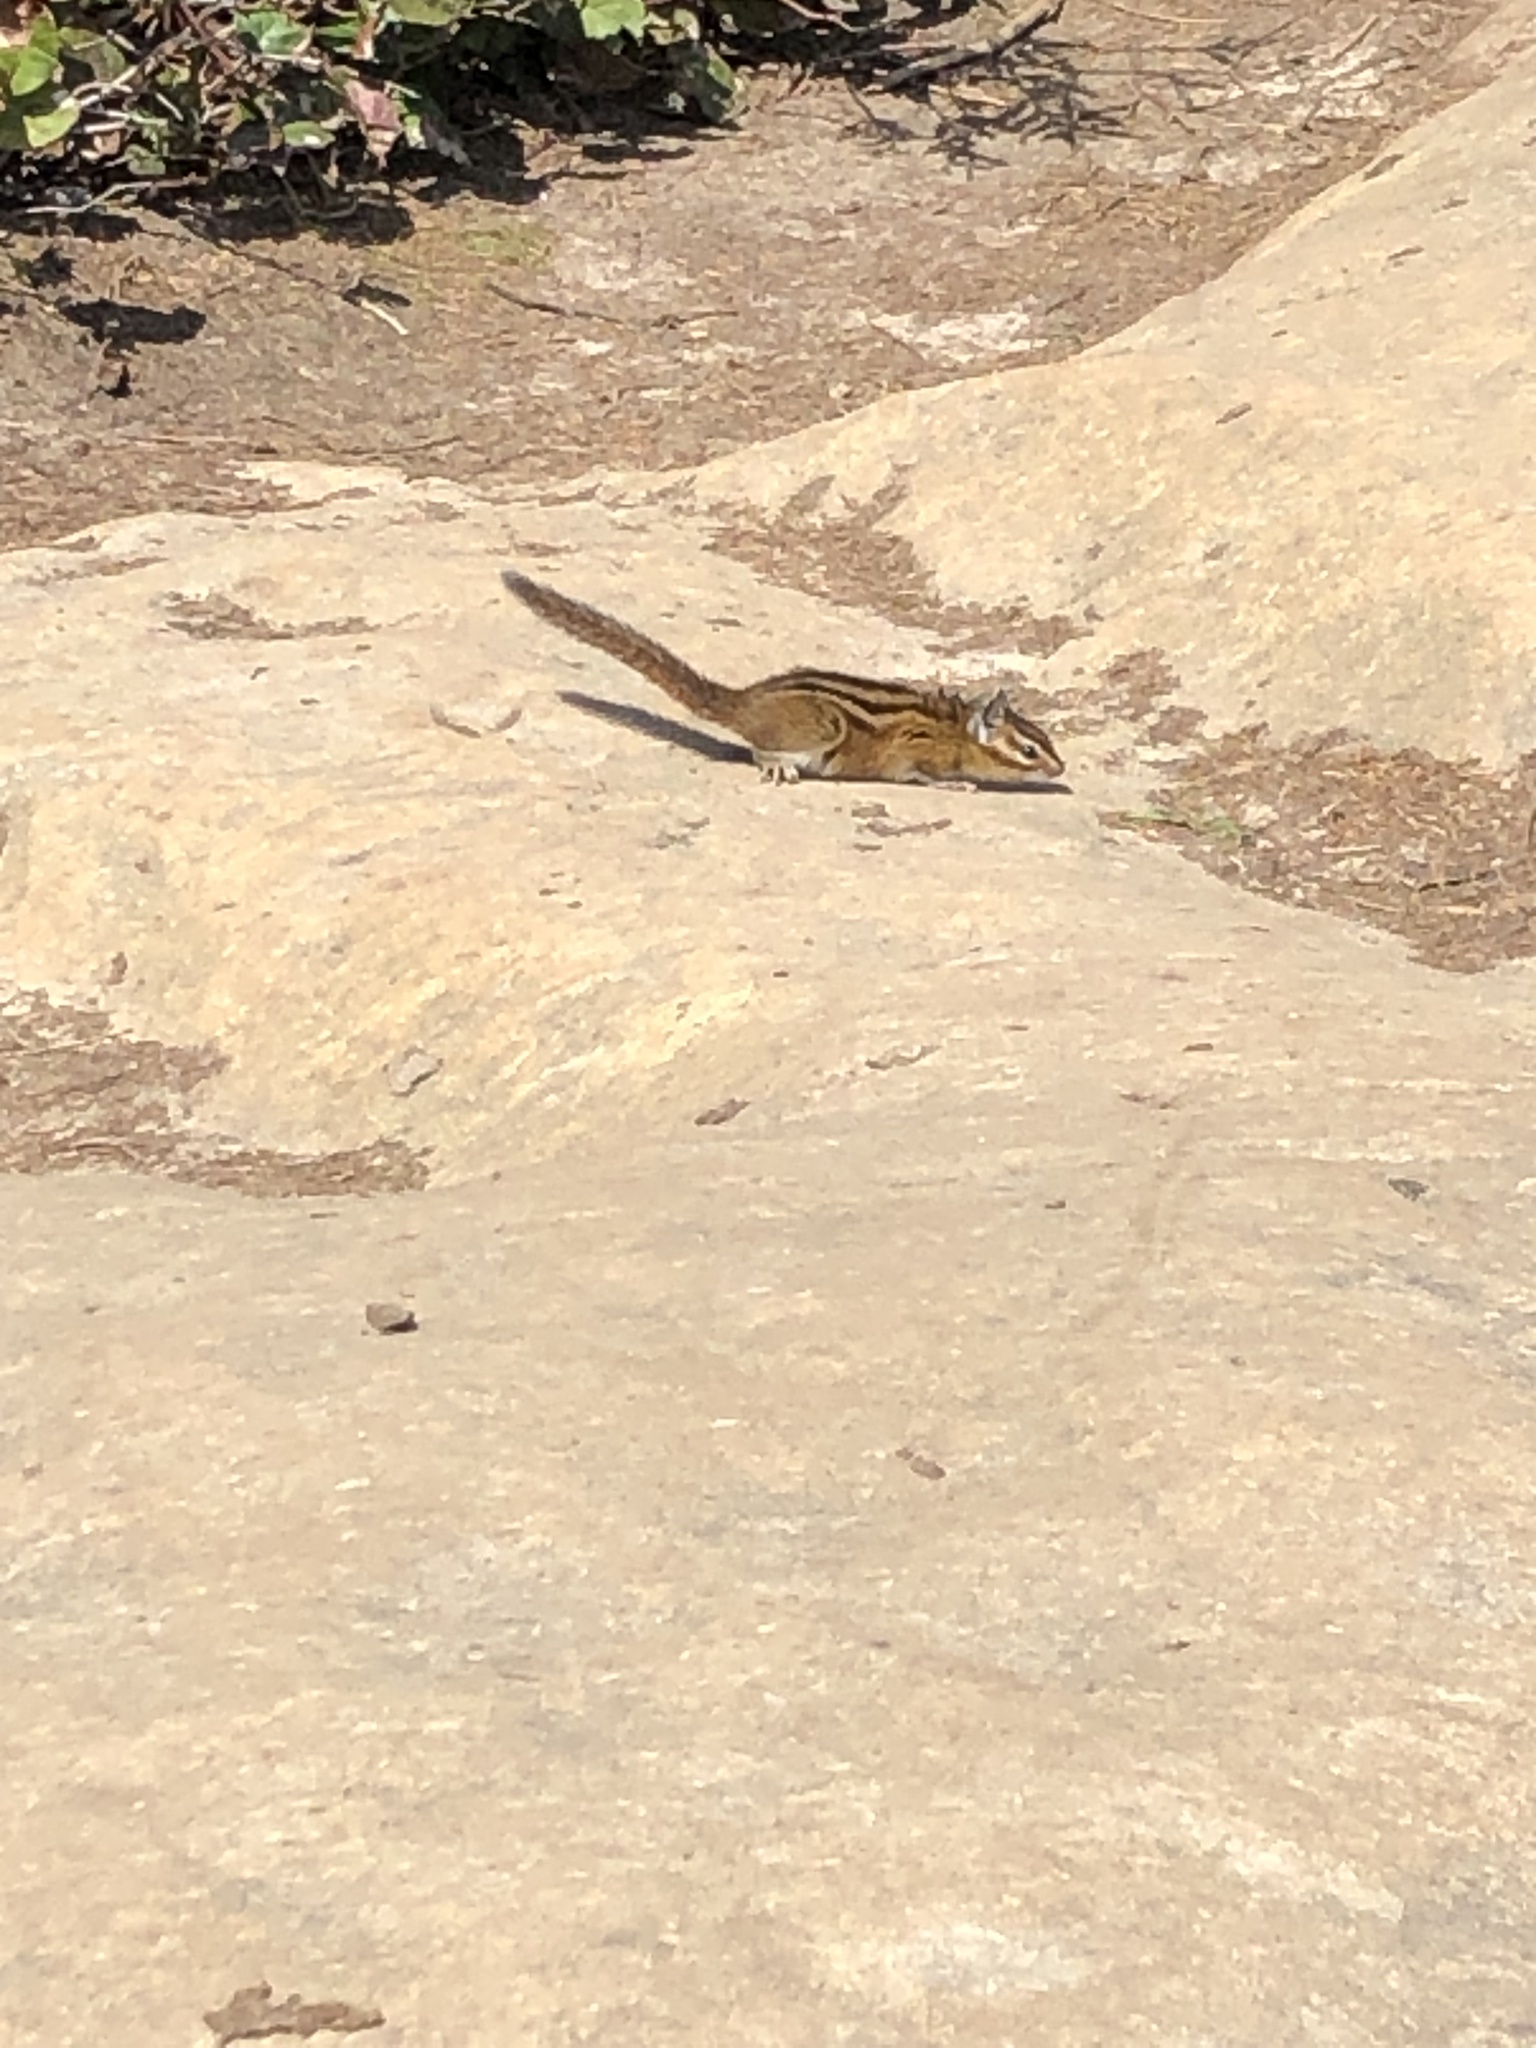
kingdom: Animalia
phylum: Chordata
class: Mammalia
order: Rodentia
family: Sciuridae
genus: Tamias
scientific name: Tamias townsendii
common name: Townsend's chipmunk
